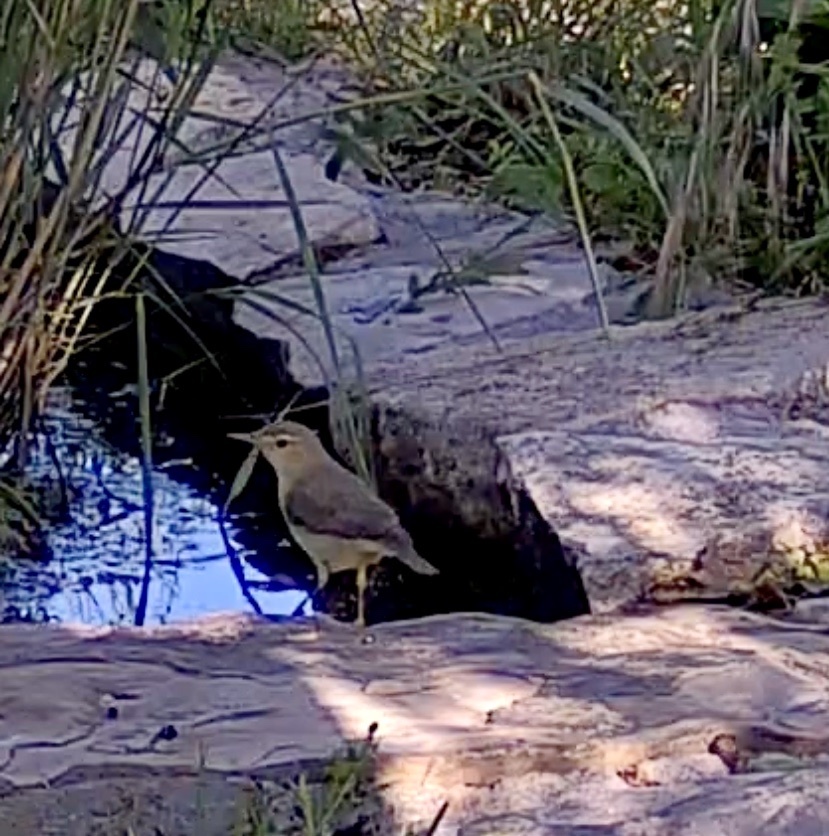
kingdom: Animalia
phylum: Chordata
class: Aves
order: Passeriformes
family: Acrocephalidae
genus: Hippolais
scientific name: Hippolais polyglotta
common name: Melodious warbler
